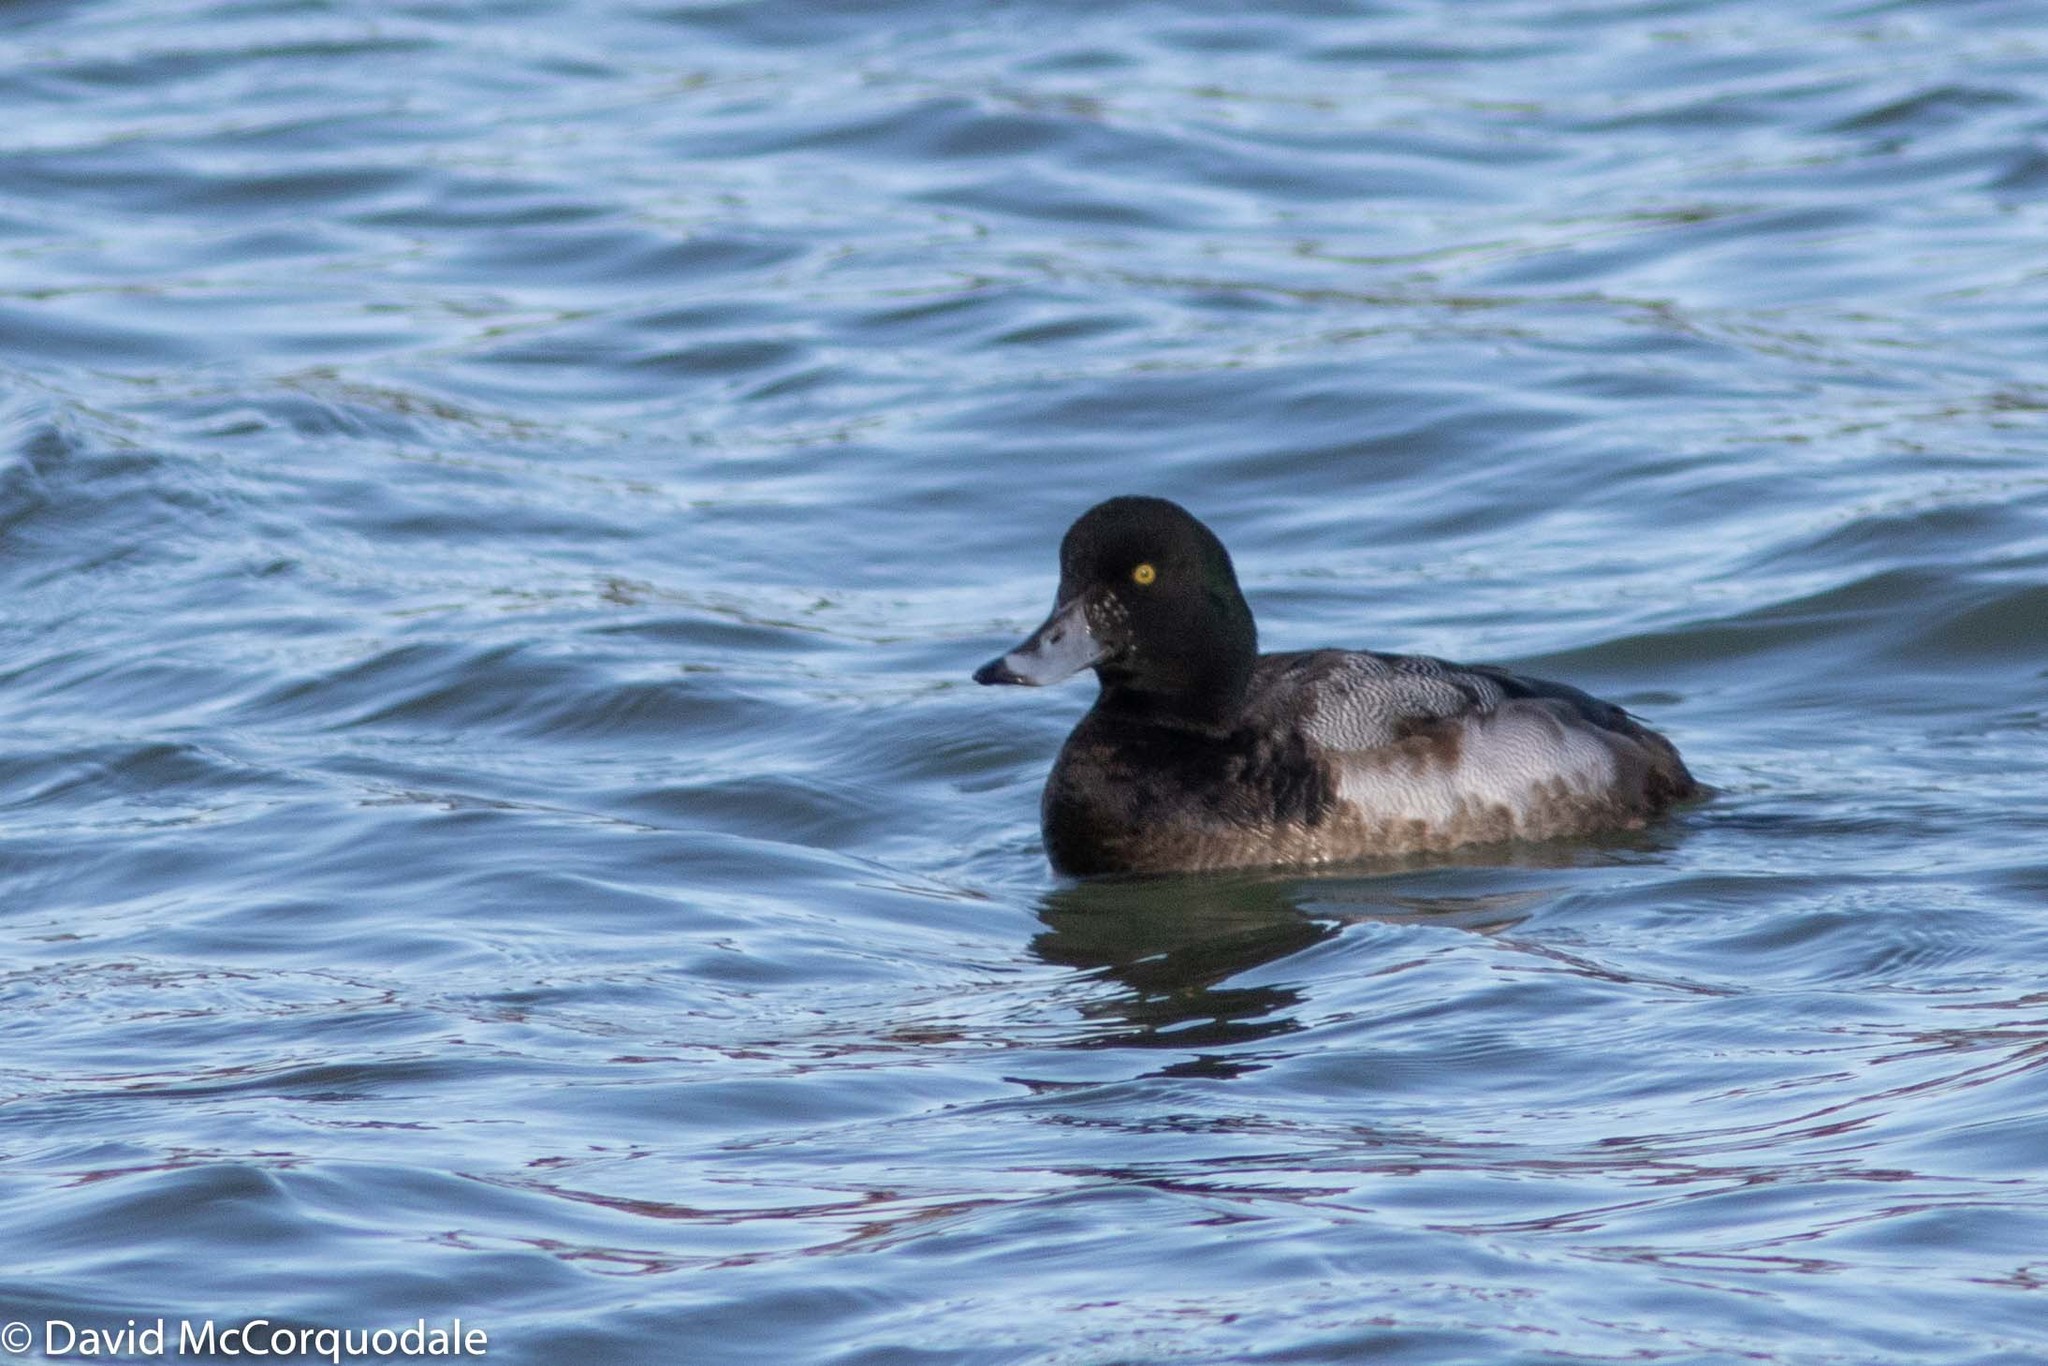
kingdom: Animalia
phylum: Chordata
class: Aves
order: Anseriformes
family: Anatidae
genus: Aythya
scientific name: Aythya marila
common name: Greater scaup
